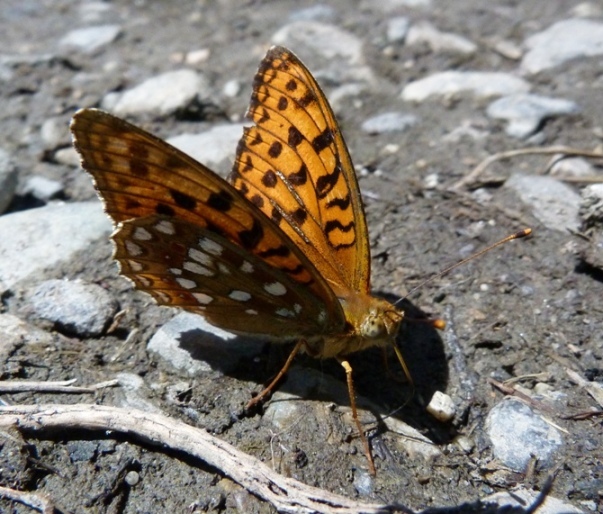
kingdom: Animalia
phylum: Arthropoda
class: Insecta
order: Lepidoptera
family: Nymphalidae
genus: Fabriciana
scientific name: Fabriciana adippe
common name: High brown fritillary
